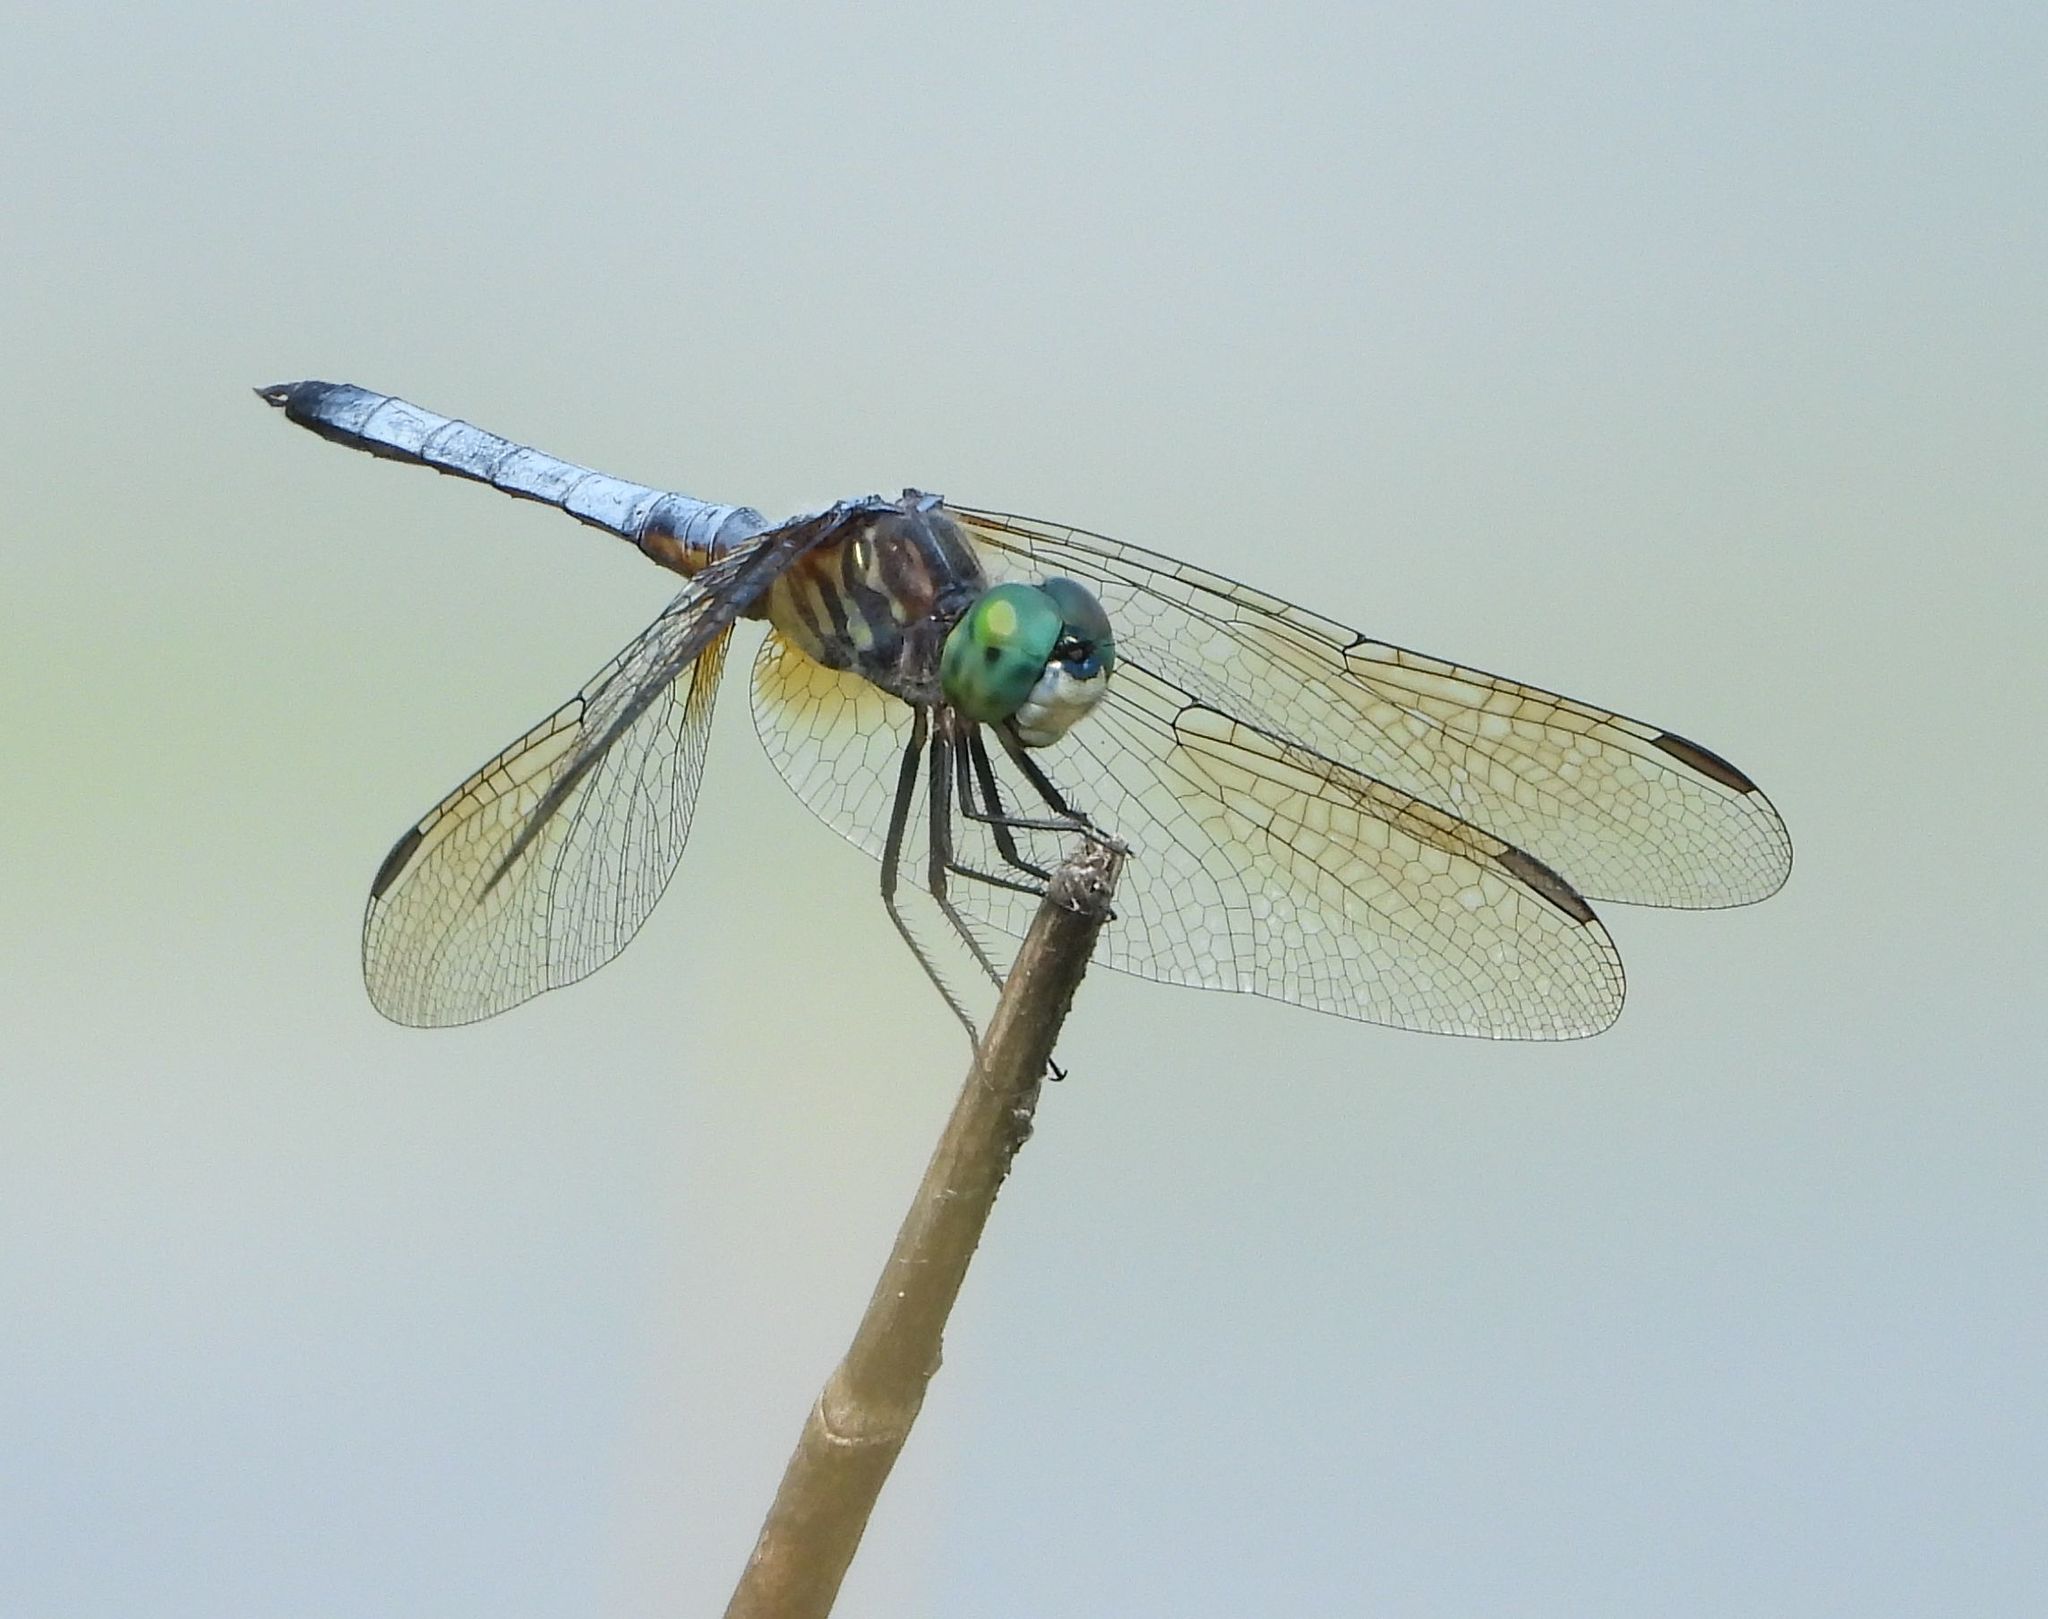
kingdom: Animalia
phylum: Arthropoda
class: Insecta
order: Odonata
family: Libellulidae
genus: Pachydiplax
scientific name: Pachydiplax longipennis
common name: Blue dasher
